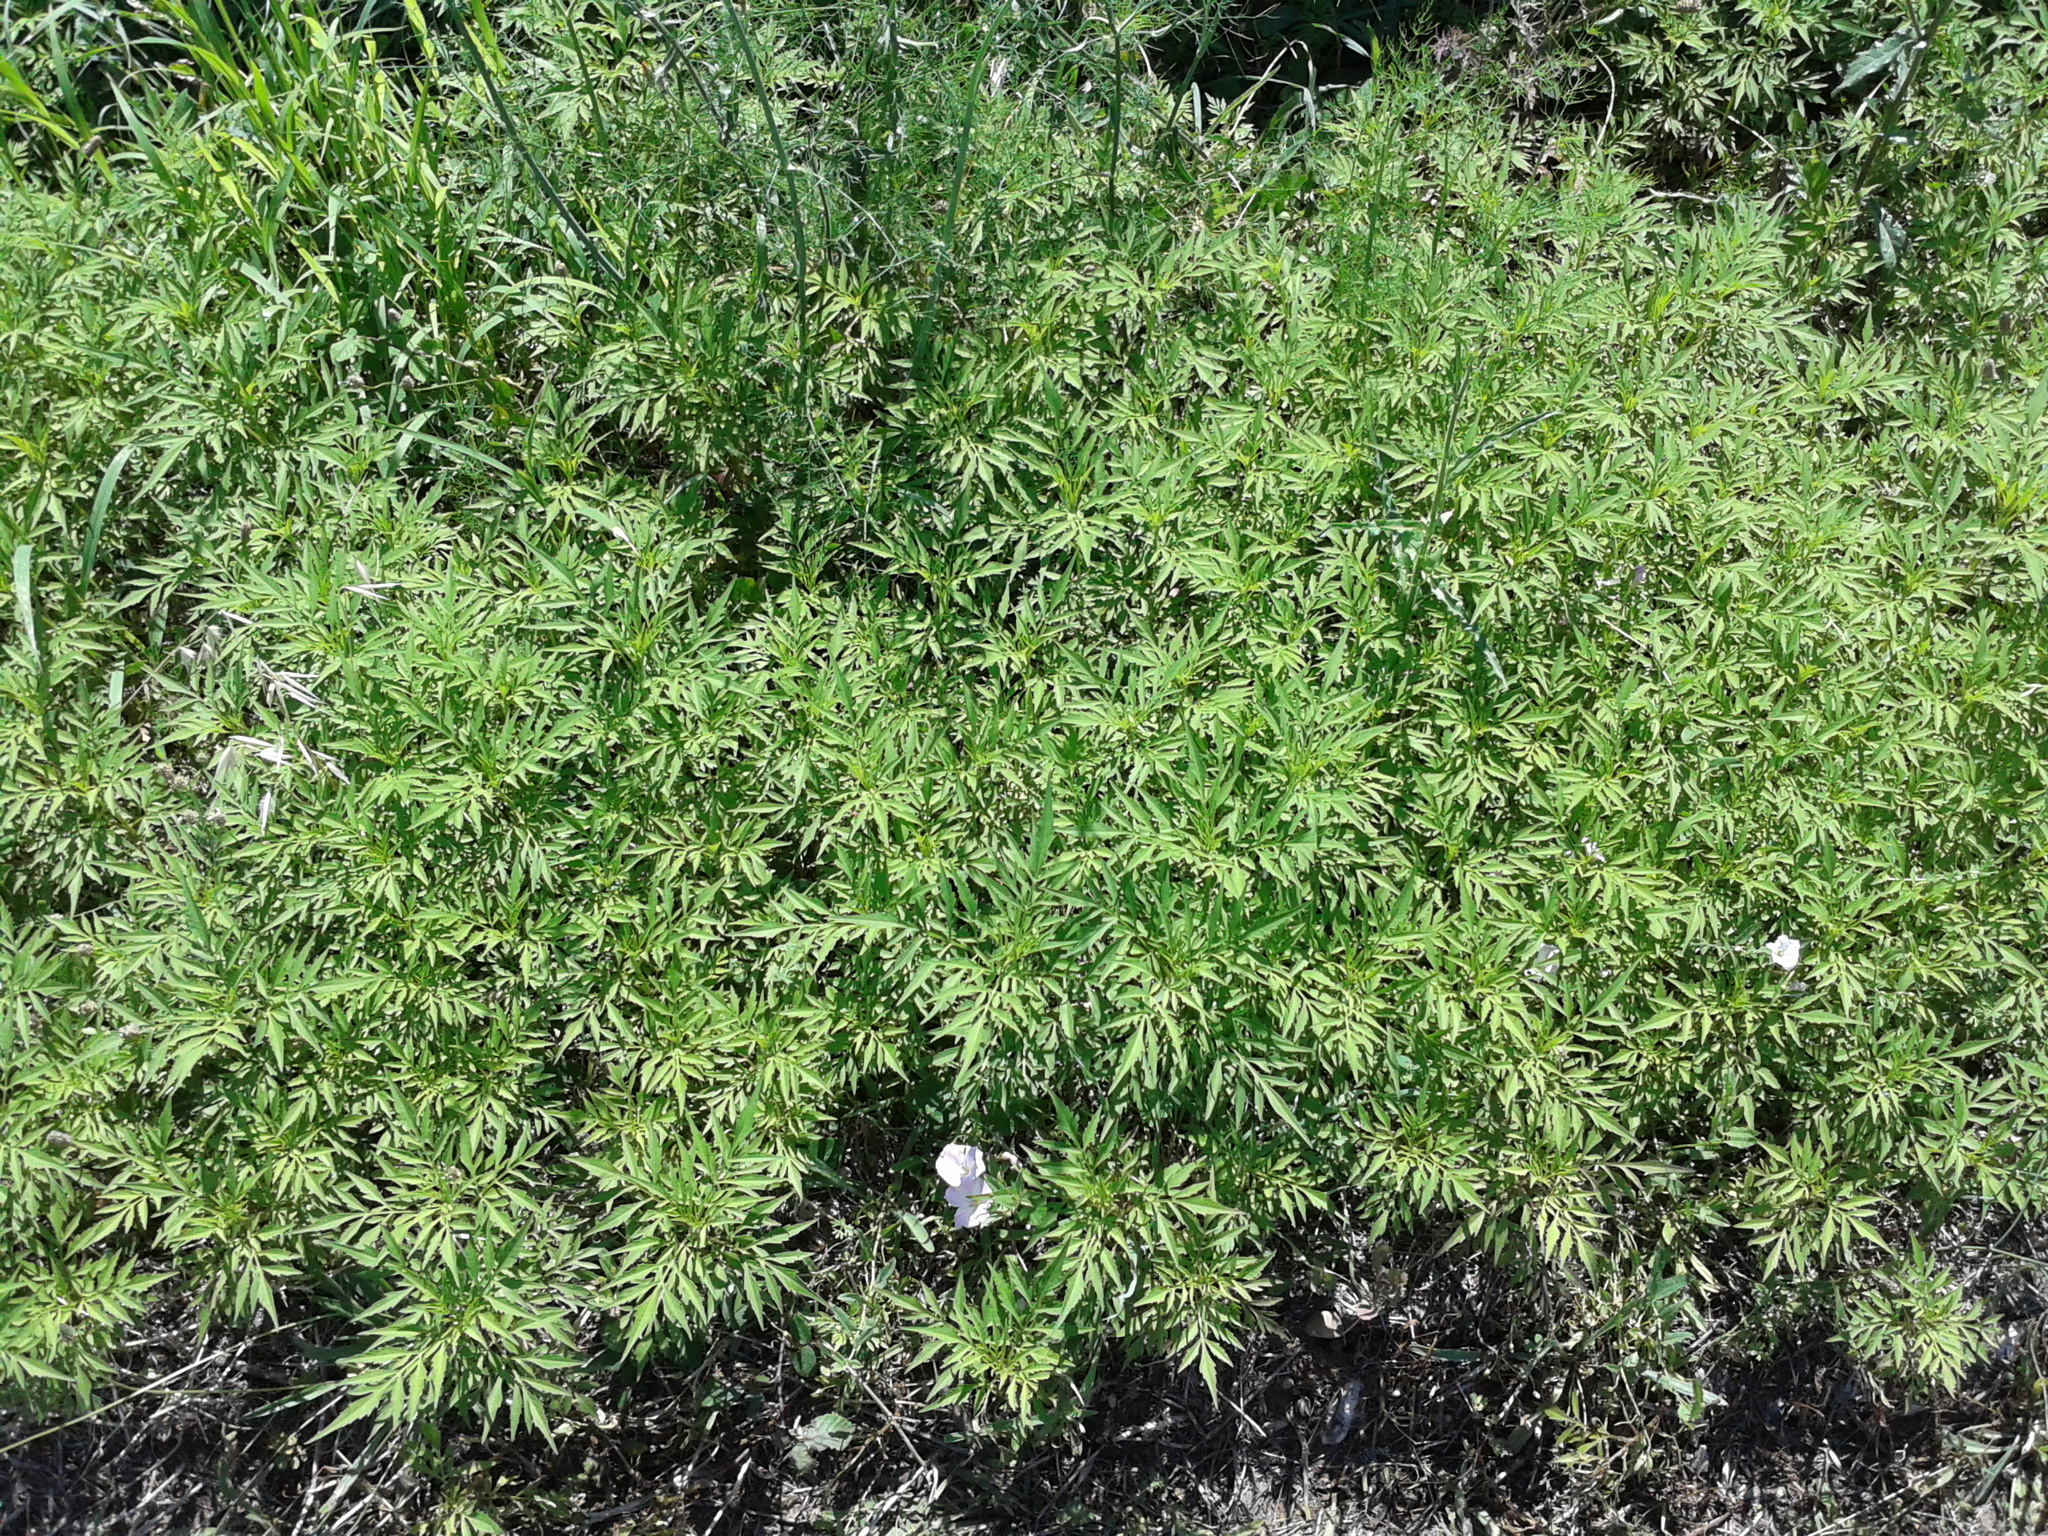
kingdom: Plantae
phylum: Tracheophyta
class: Magnoliopsida
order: Asterales
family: Asteraceae
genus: Bidens
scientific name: Bidens subalternans
